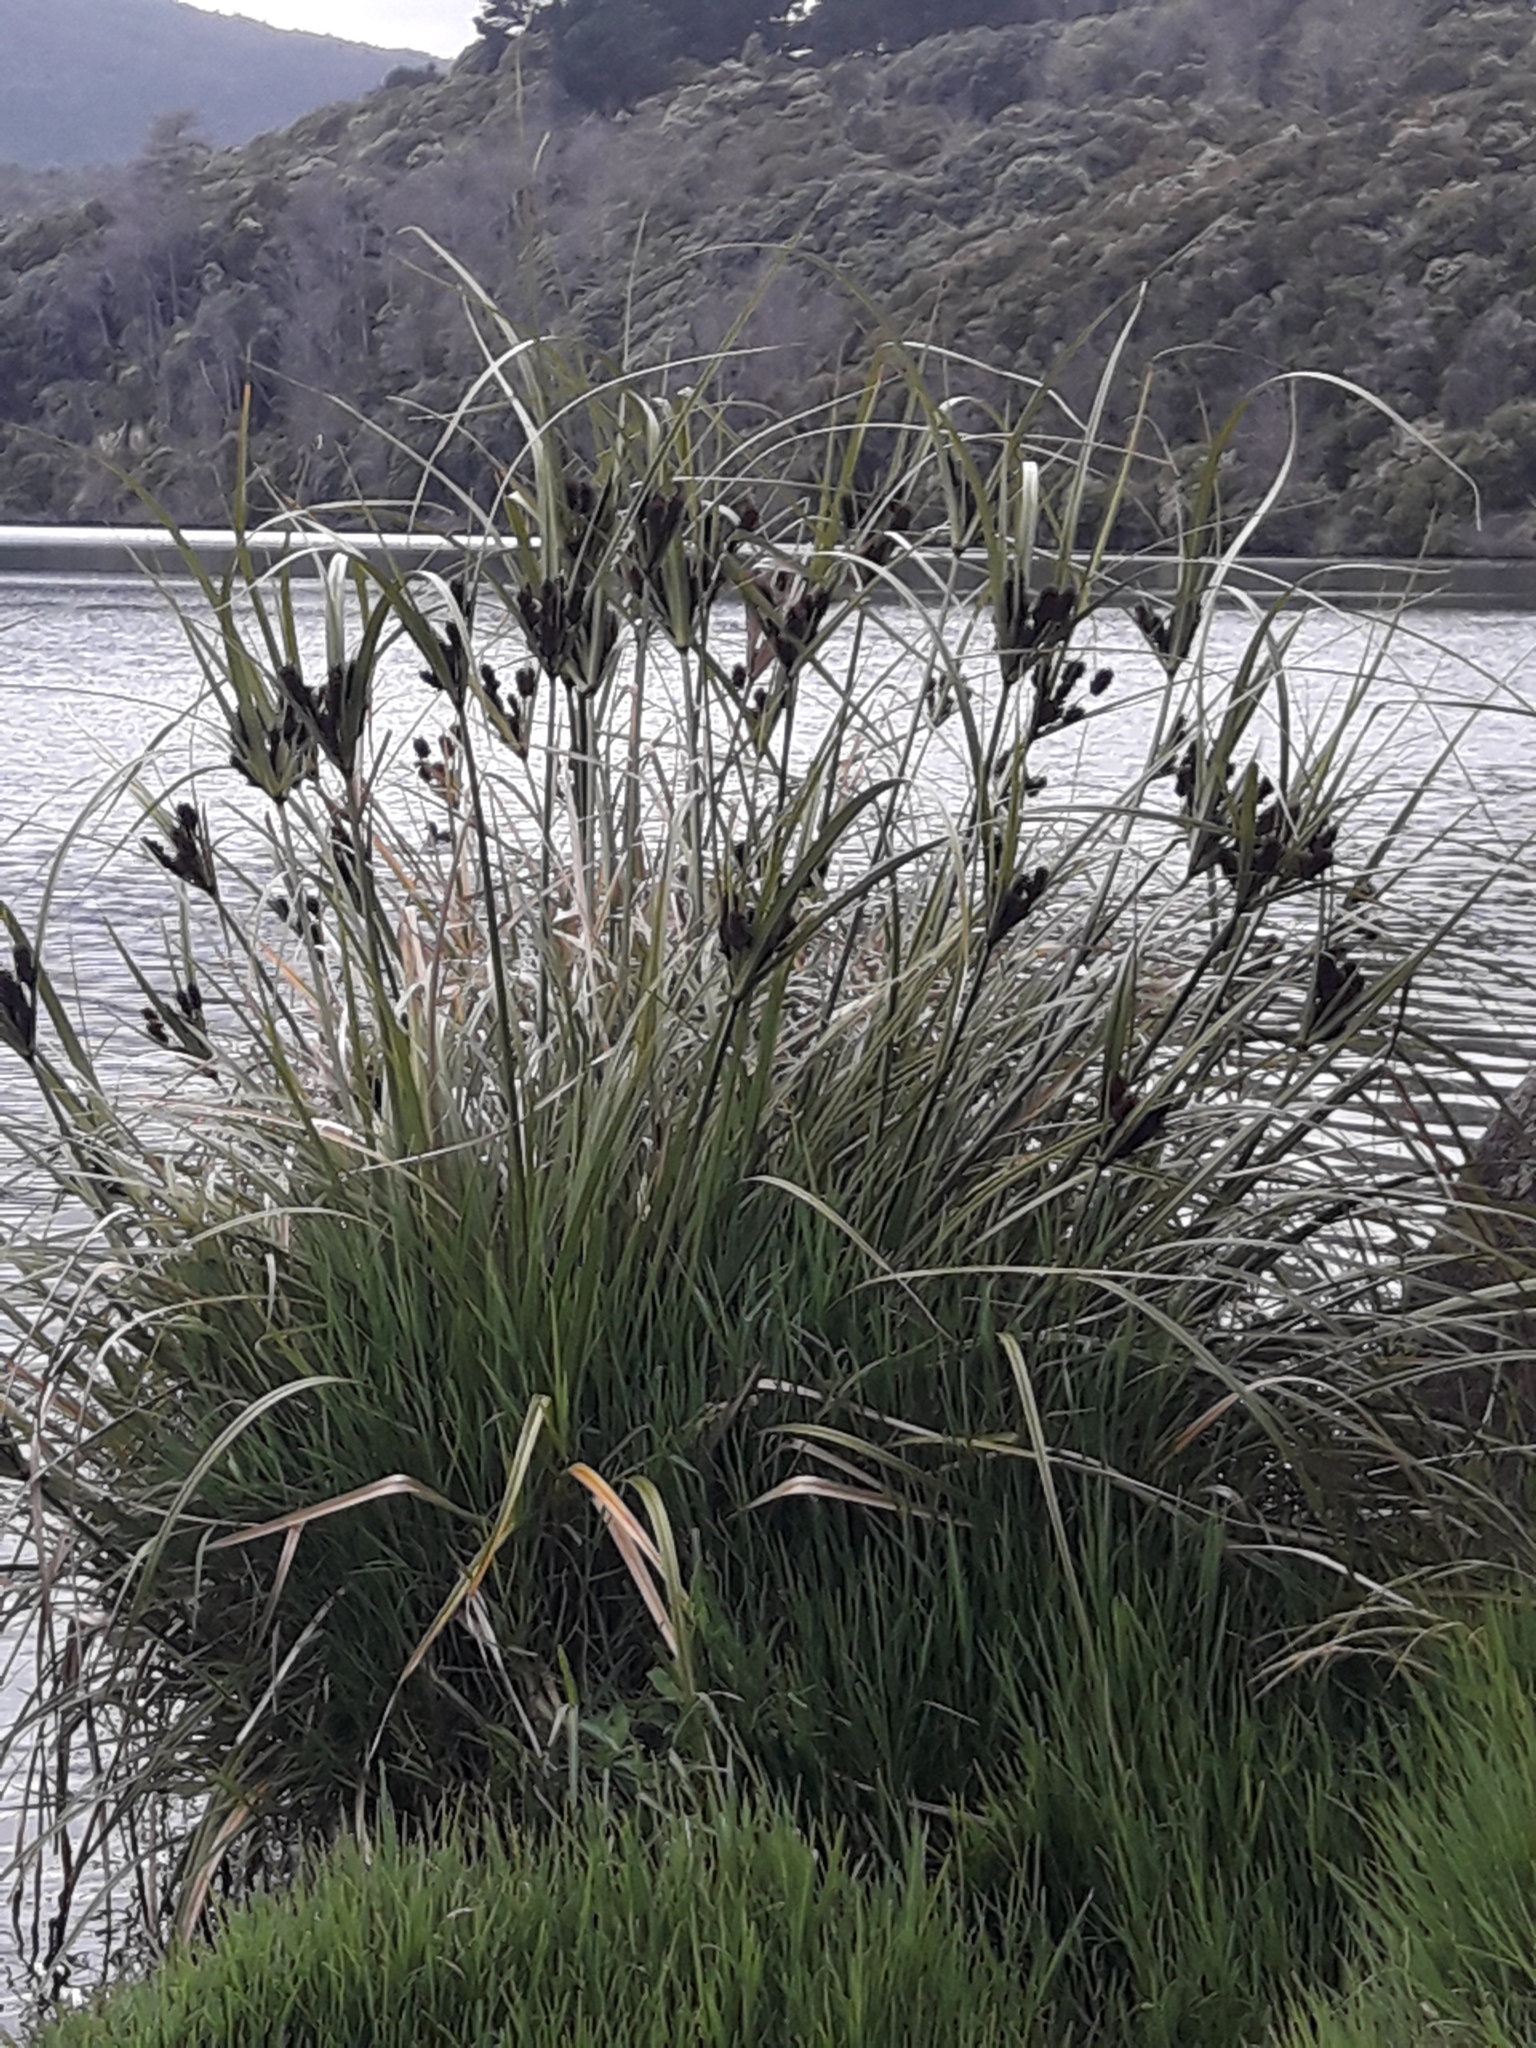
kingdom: Plantae
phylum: Tracheophyta
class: Liliopsida
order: Poales
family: Cyperaceae
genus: Cyperus
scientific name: Cyperus ustulatus
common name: Giant umbrella-sedge
